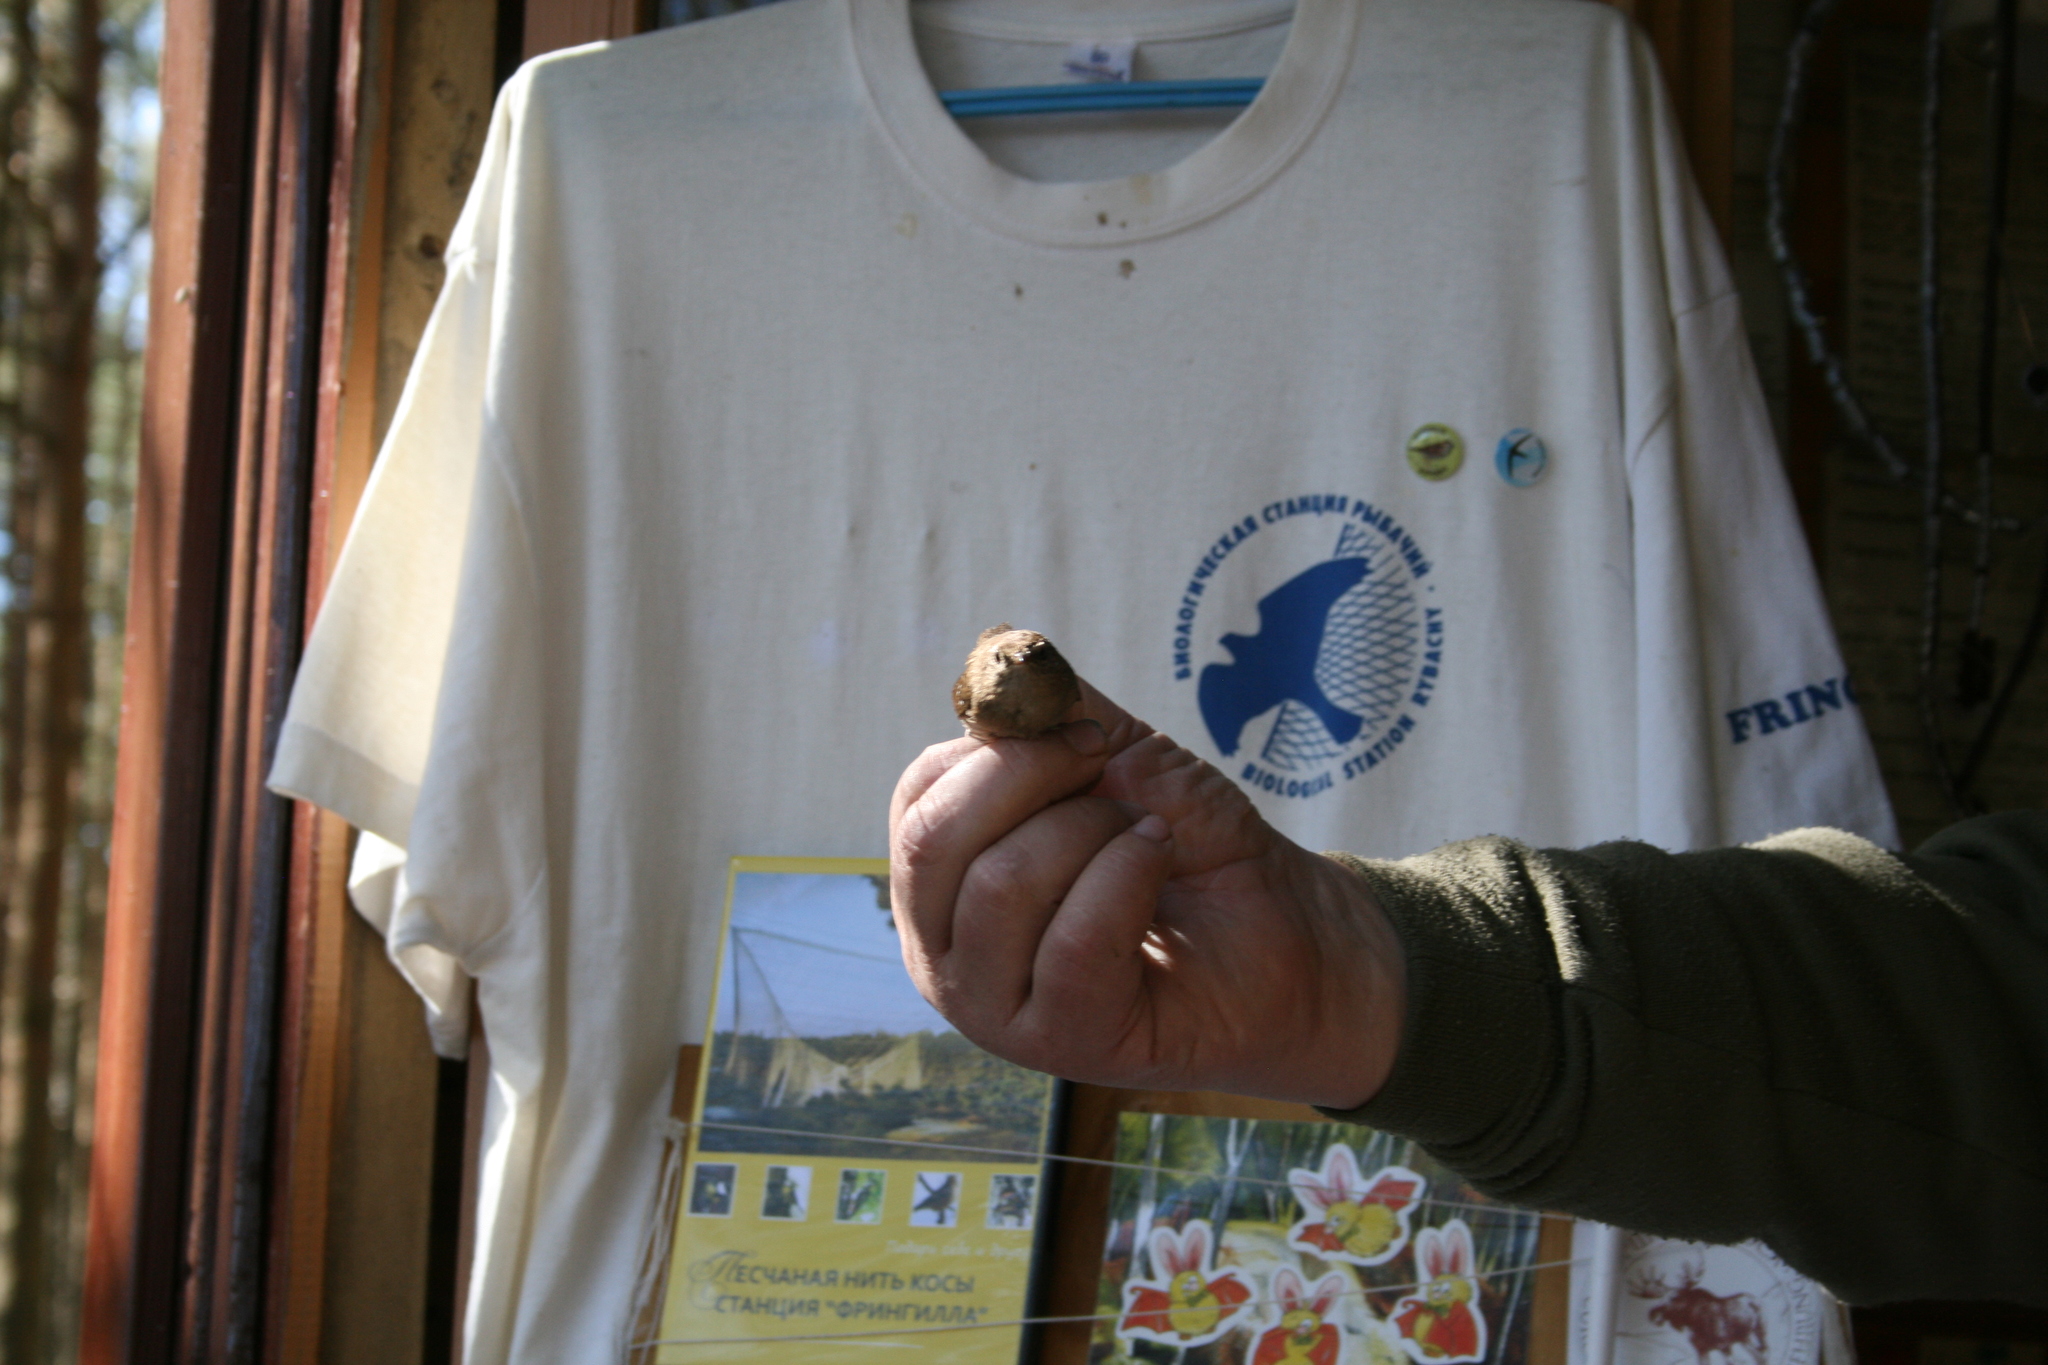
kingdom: Animalia
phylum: Chordata
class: Aves
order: Passeriformes
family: Troglodytidae
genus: Troglodytes
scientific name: Troglodytes troglodytes
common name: Eurasian wren
